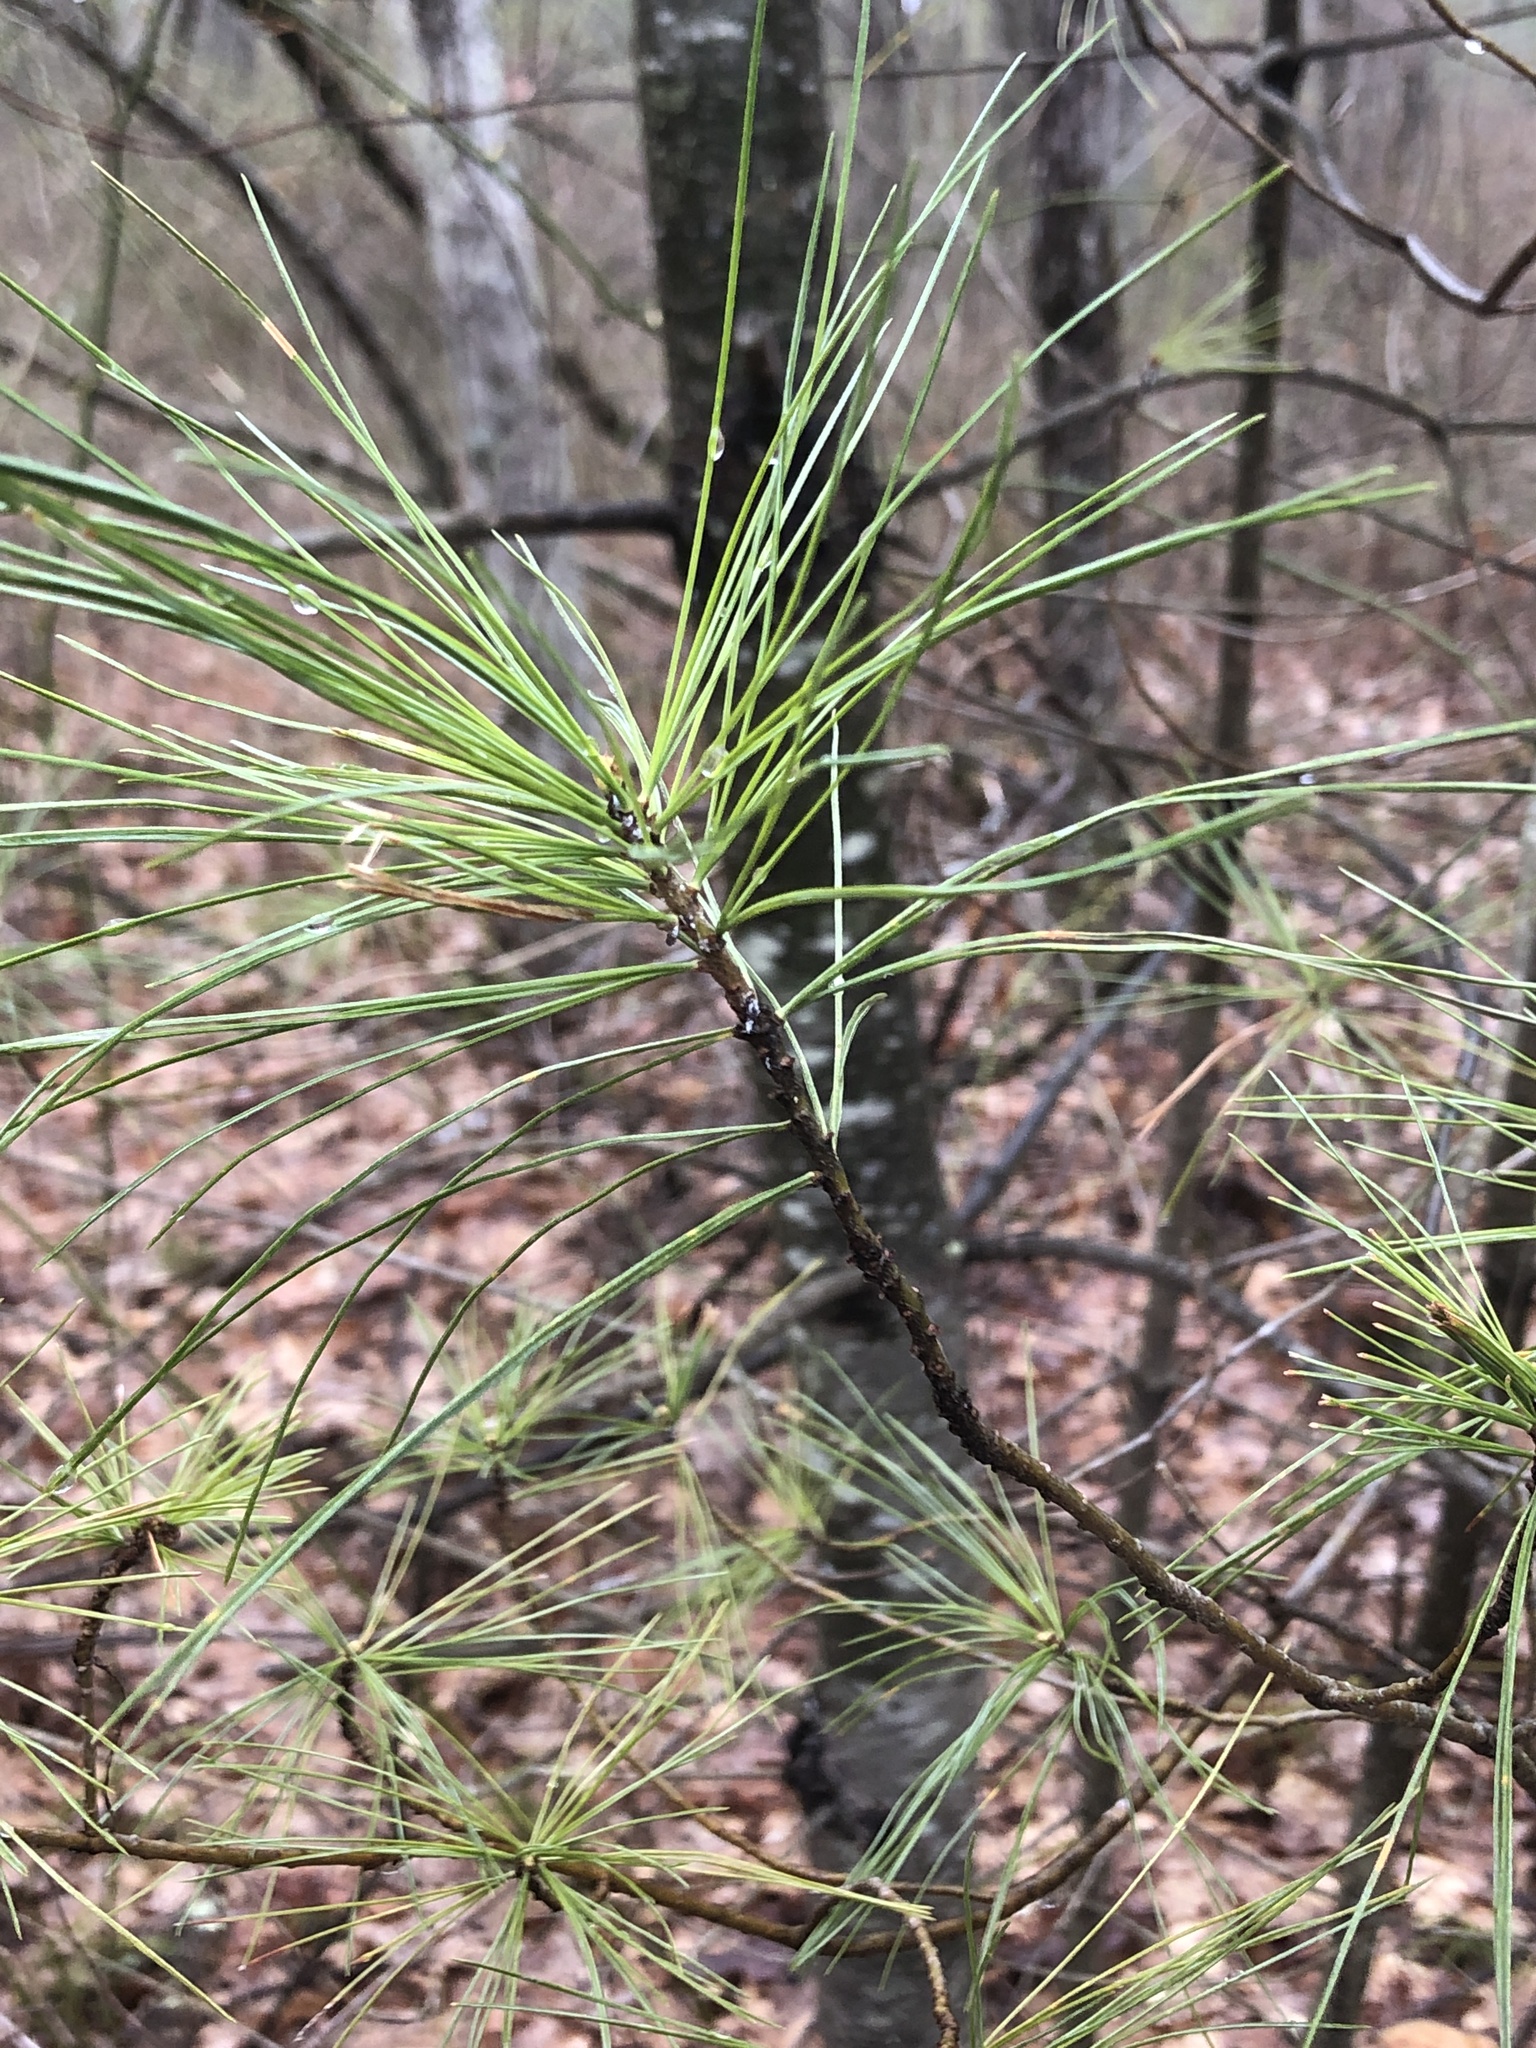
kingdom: Plantae
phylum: Tracheophyta
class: Pinopsida
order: Pinales
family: Pinaceae
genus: Pinus
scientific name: Pinus strobus
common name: Weymouth pine
